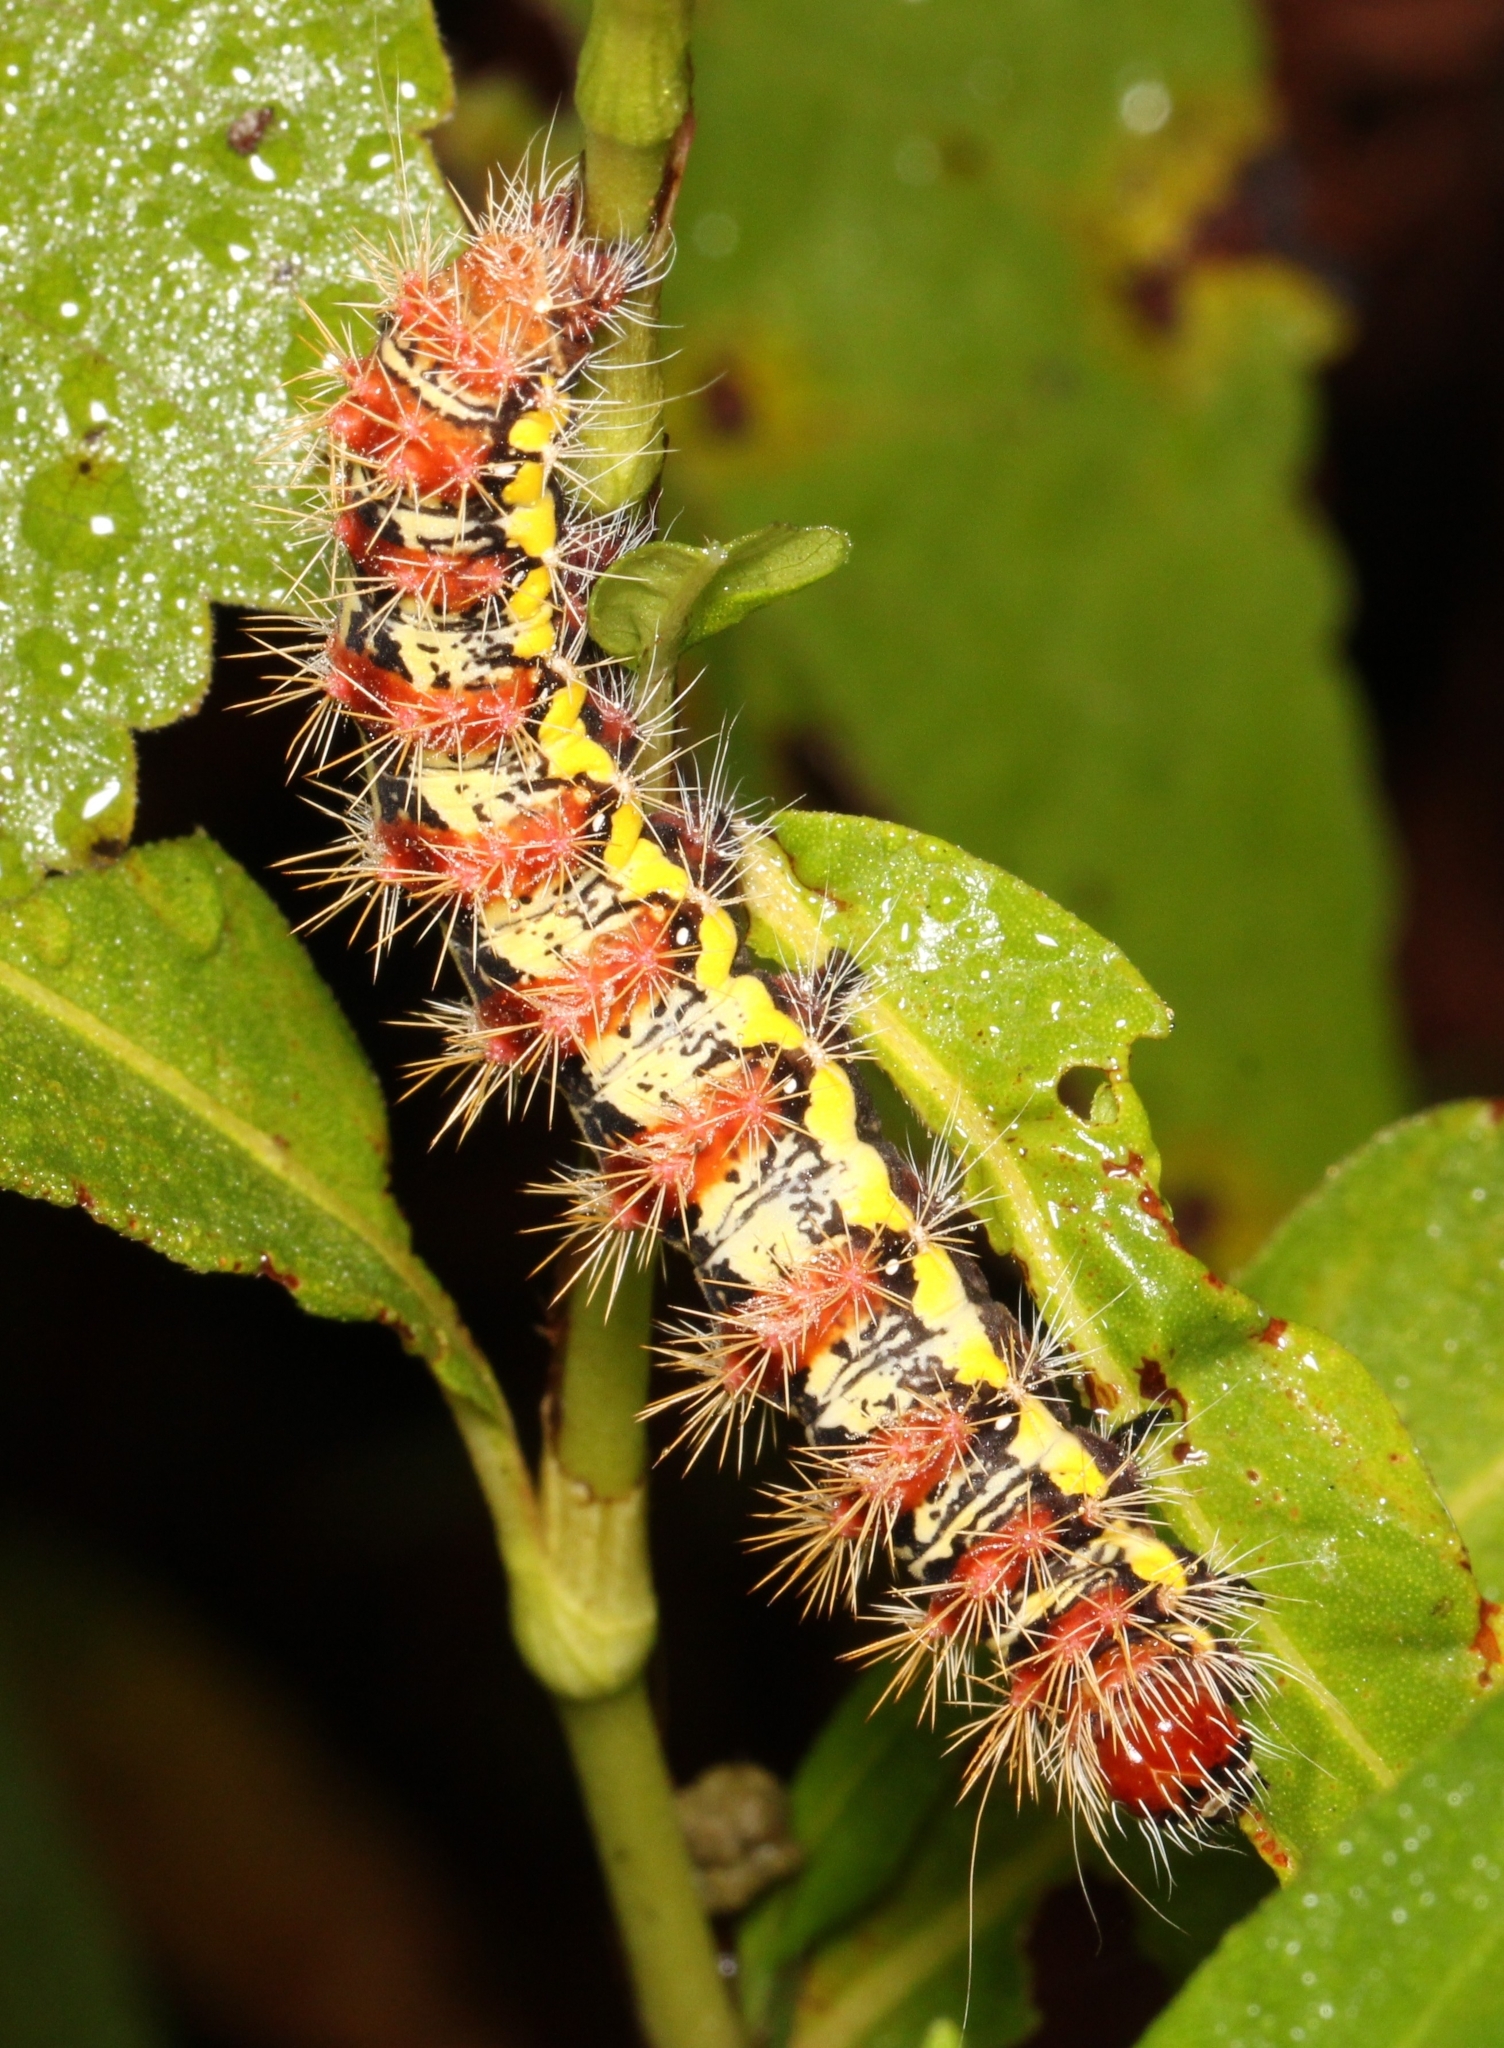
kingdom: Animalia
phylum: Arthropoda
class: Insecta
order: Lepidoptera
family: Noctuidae
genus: Acronicta
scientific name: Acronicta oblinita
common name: Smeared dagger
